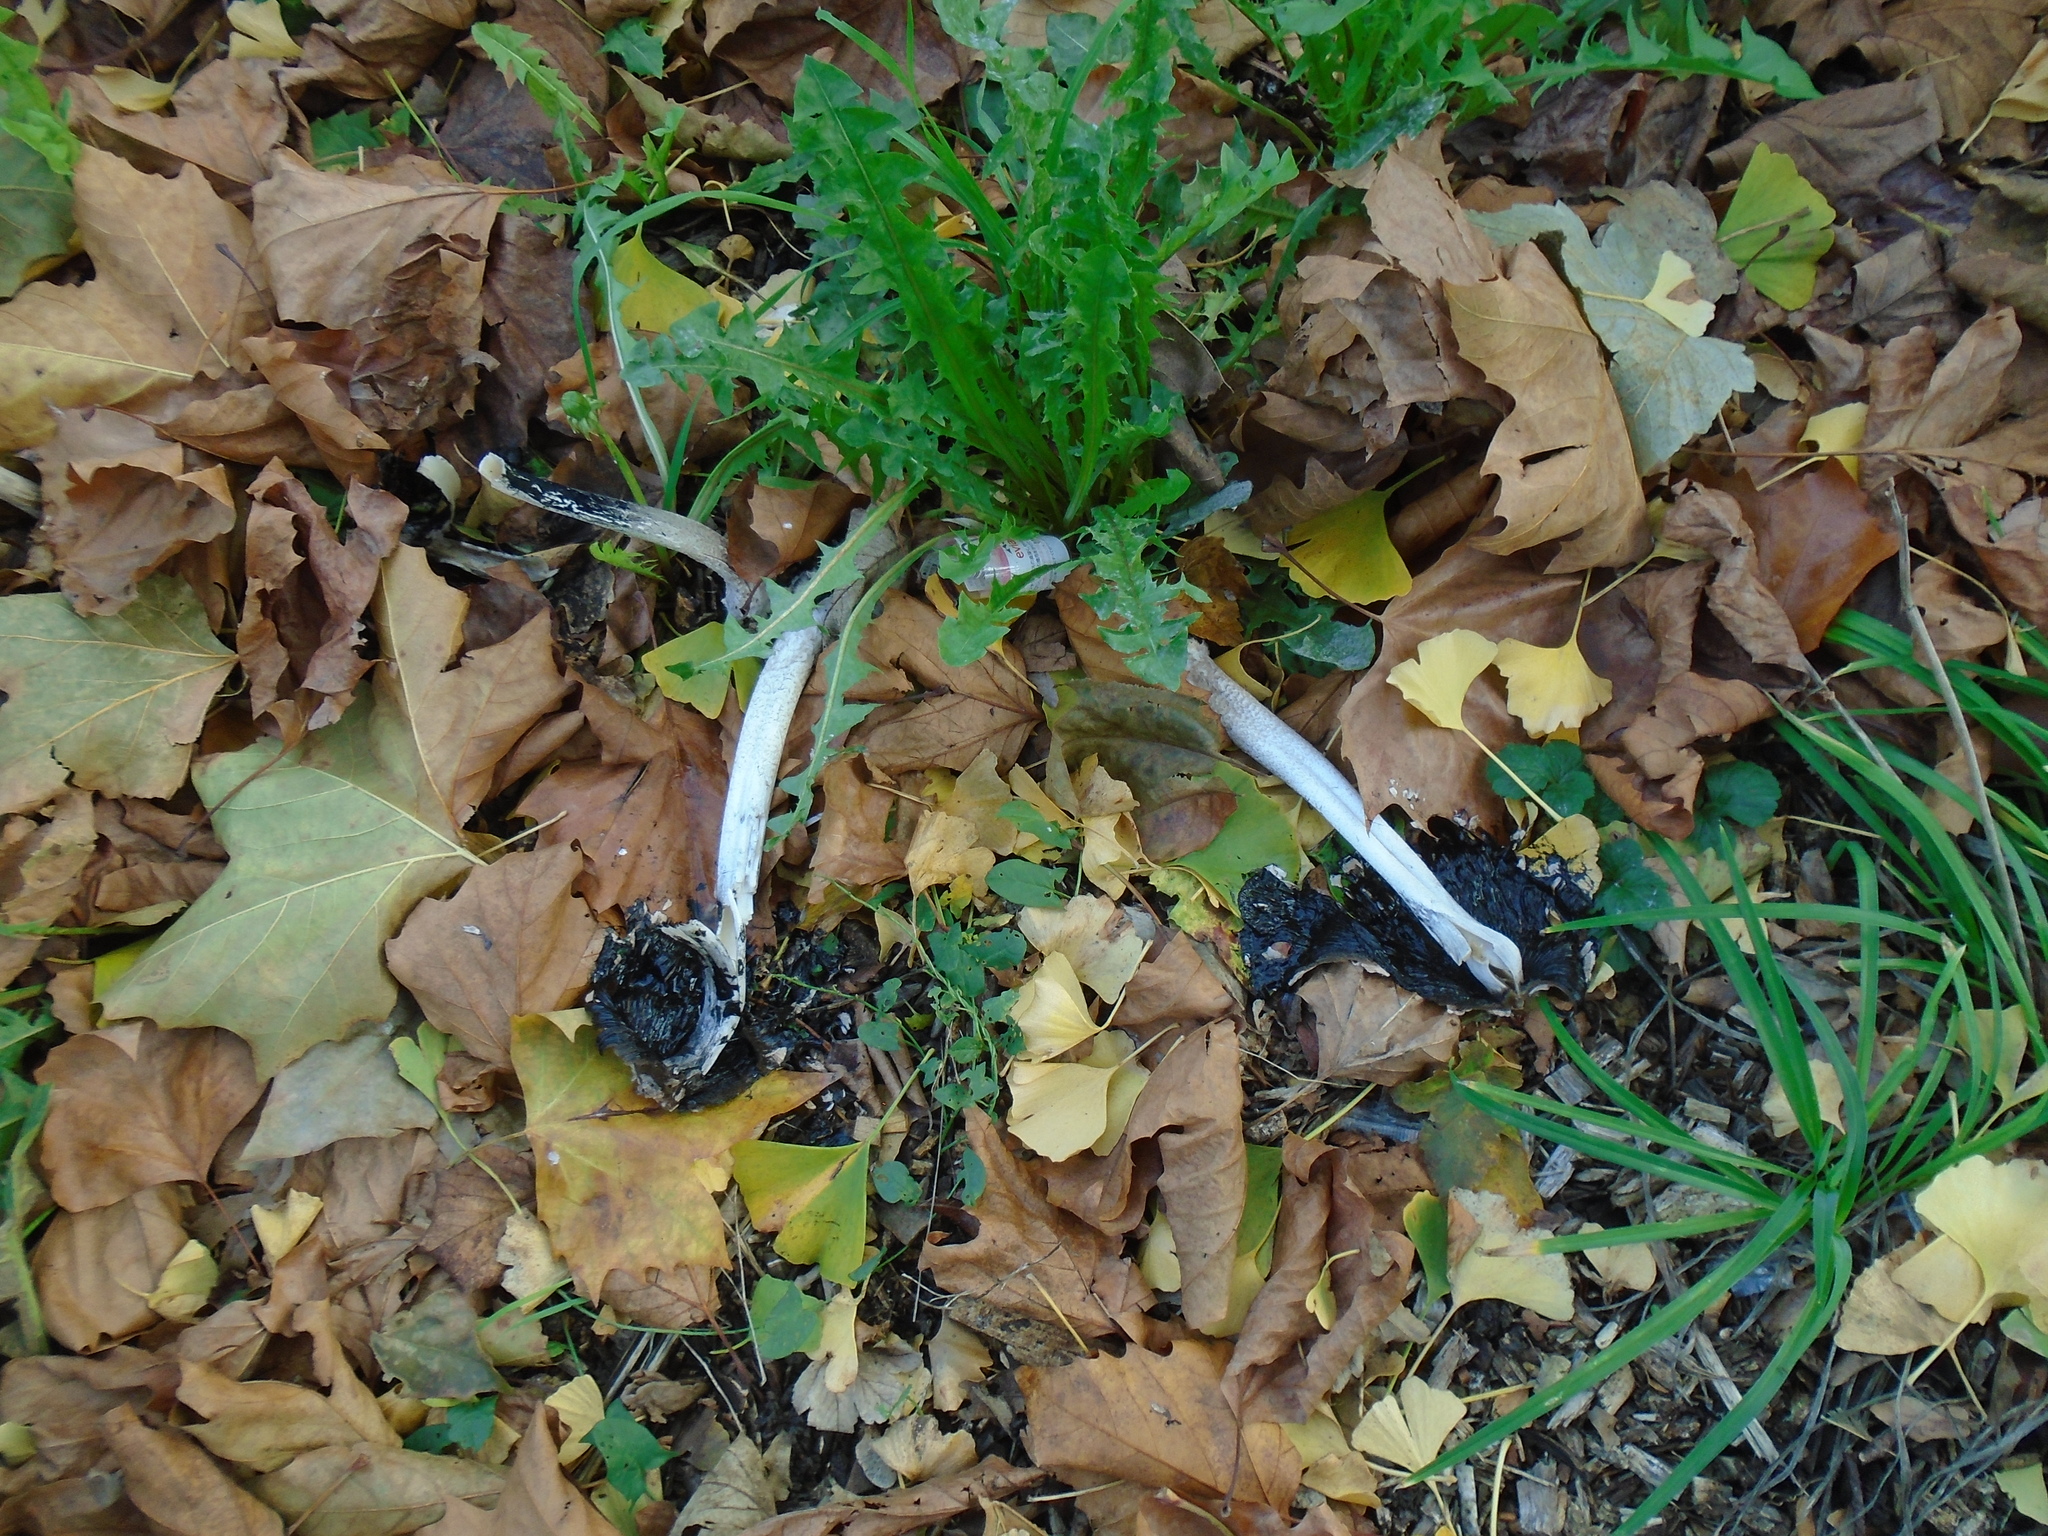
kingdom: Fungi
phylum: Basidiomycota
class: Agaricomycetes
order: Agaricales
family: Psathyrellaceae
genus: Coprinopsis
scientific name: Coprinopsis picacea
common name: Magpie inkcap
